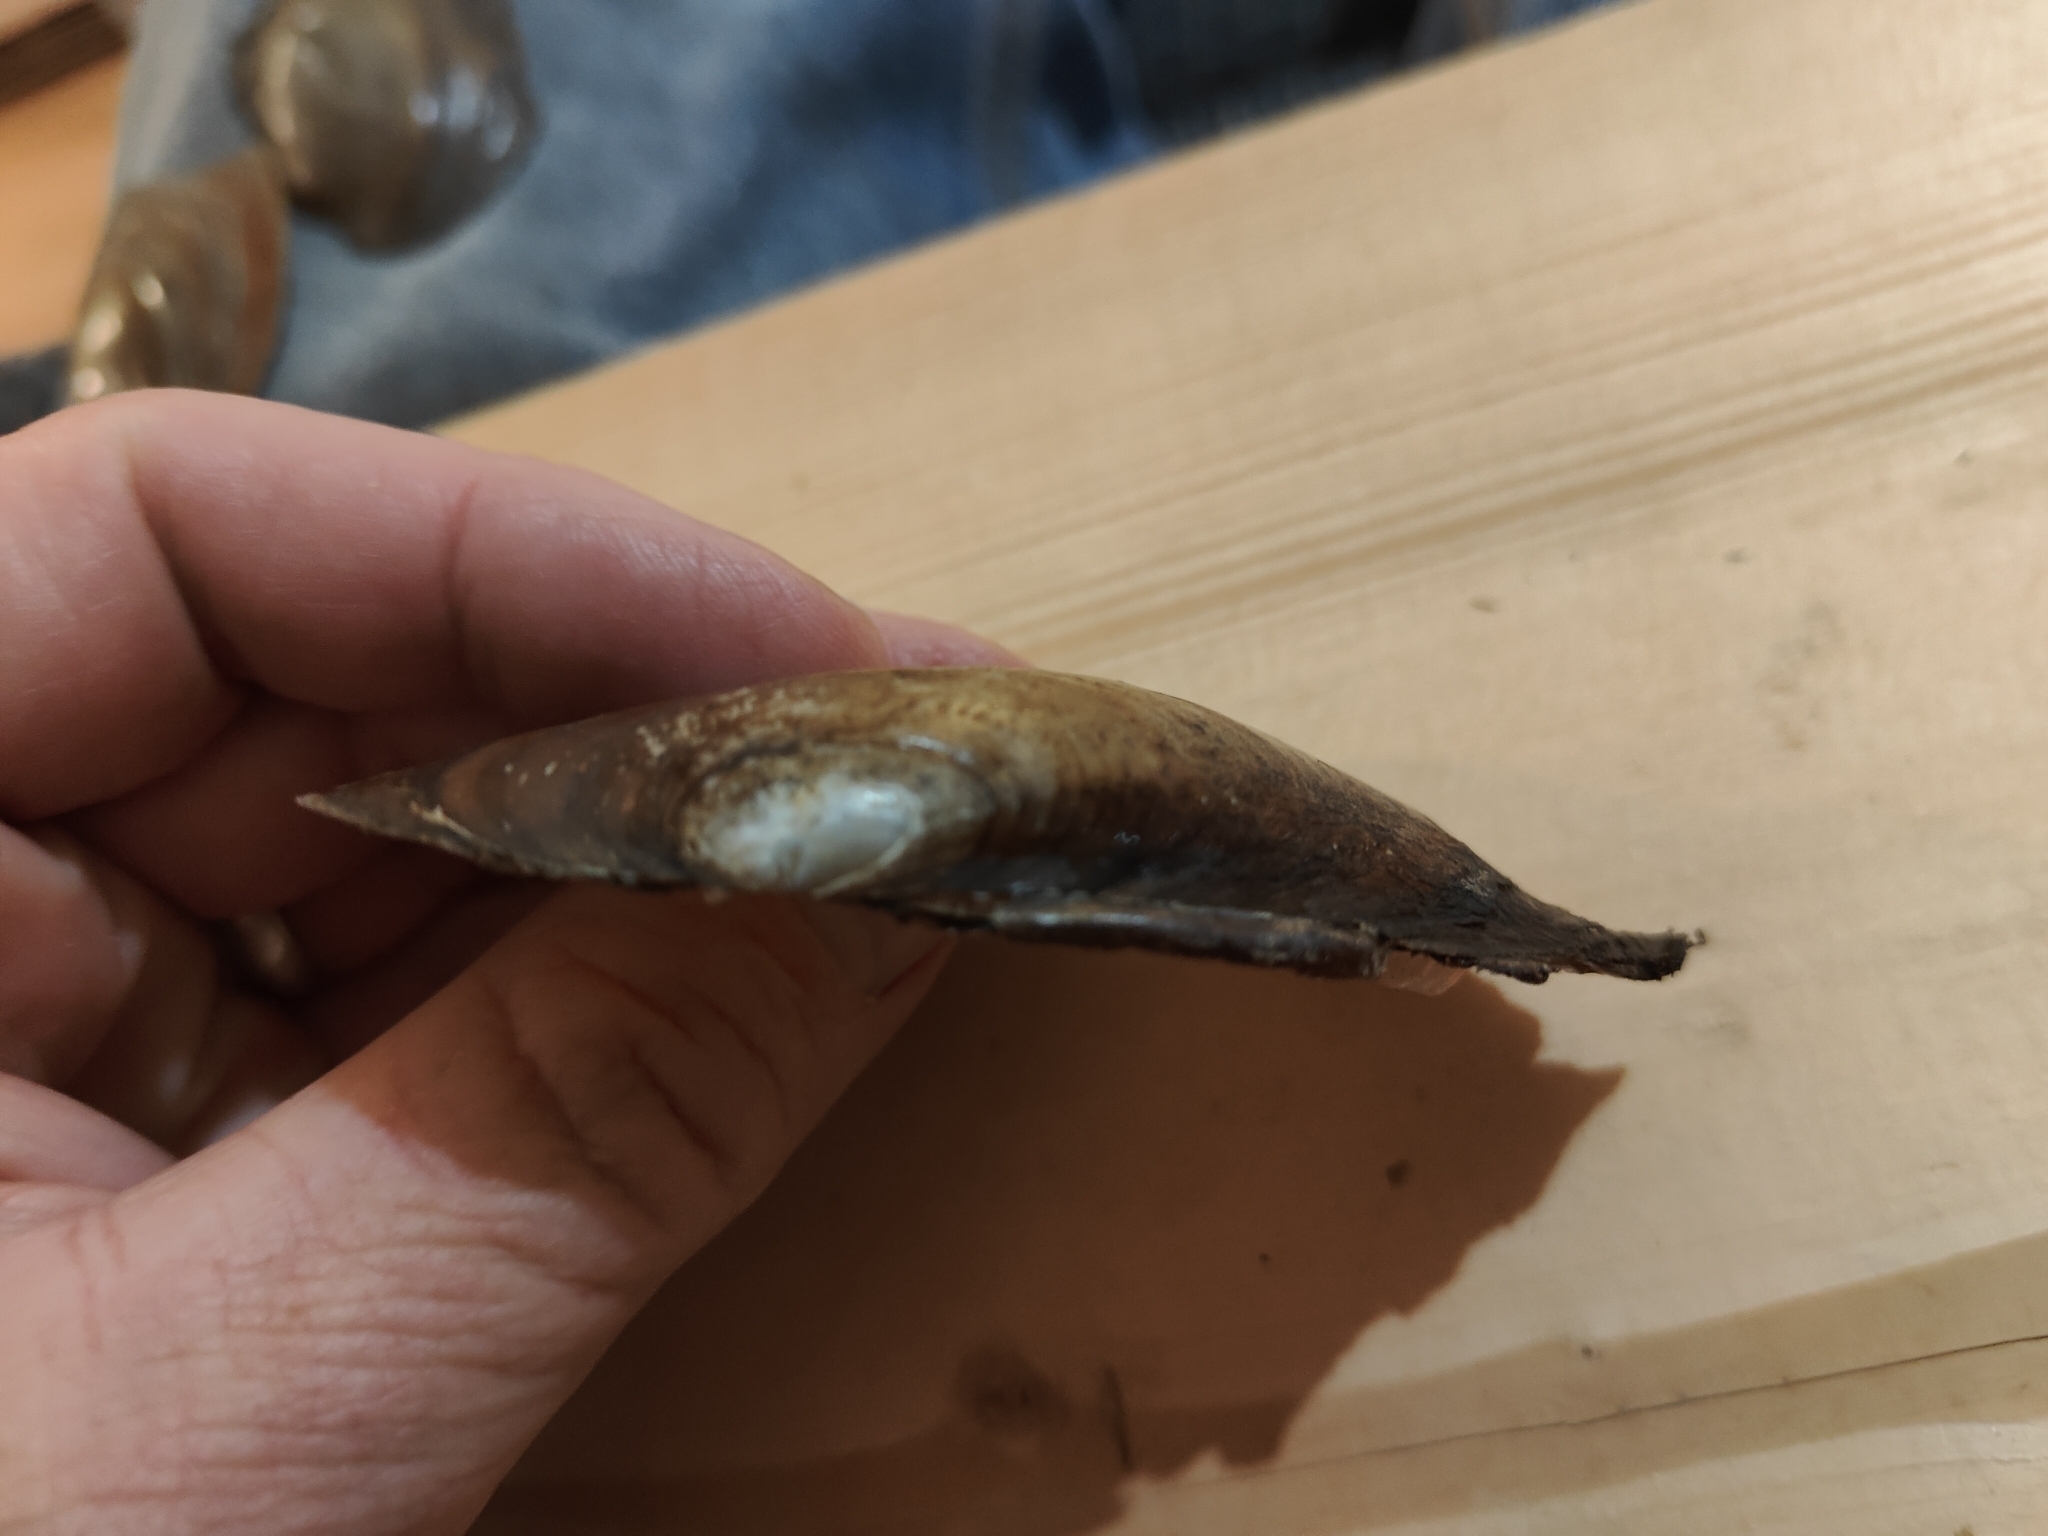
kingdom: Animalia
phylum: Mollusca
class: Bivalvia
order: Unionida
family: Unionidae
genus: Potamilus
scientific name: Potamilus fragilis
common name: Fragile papershell
